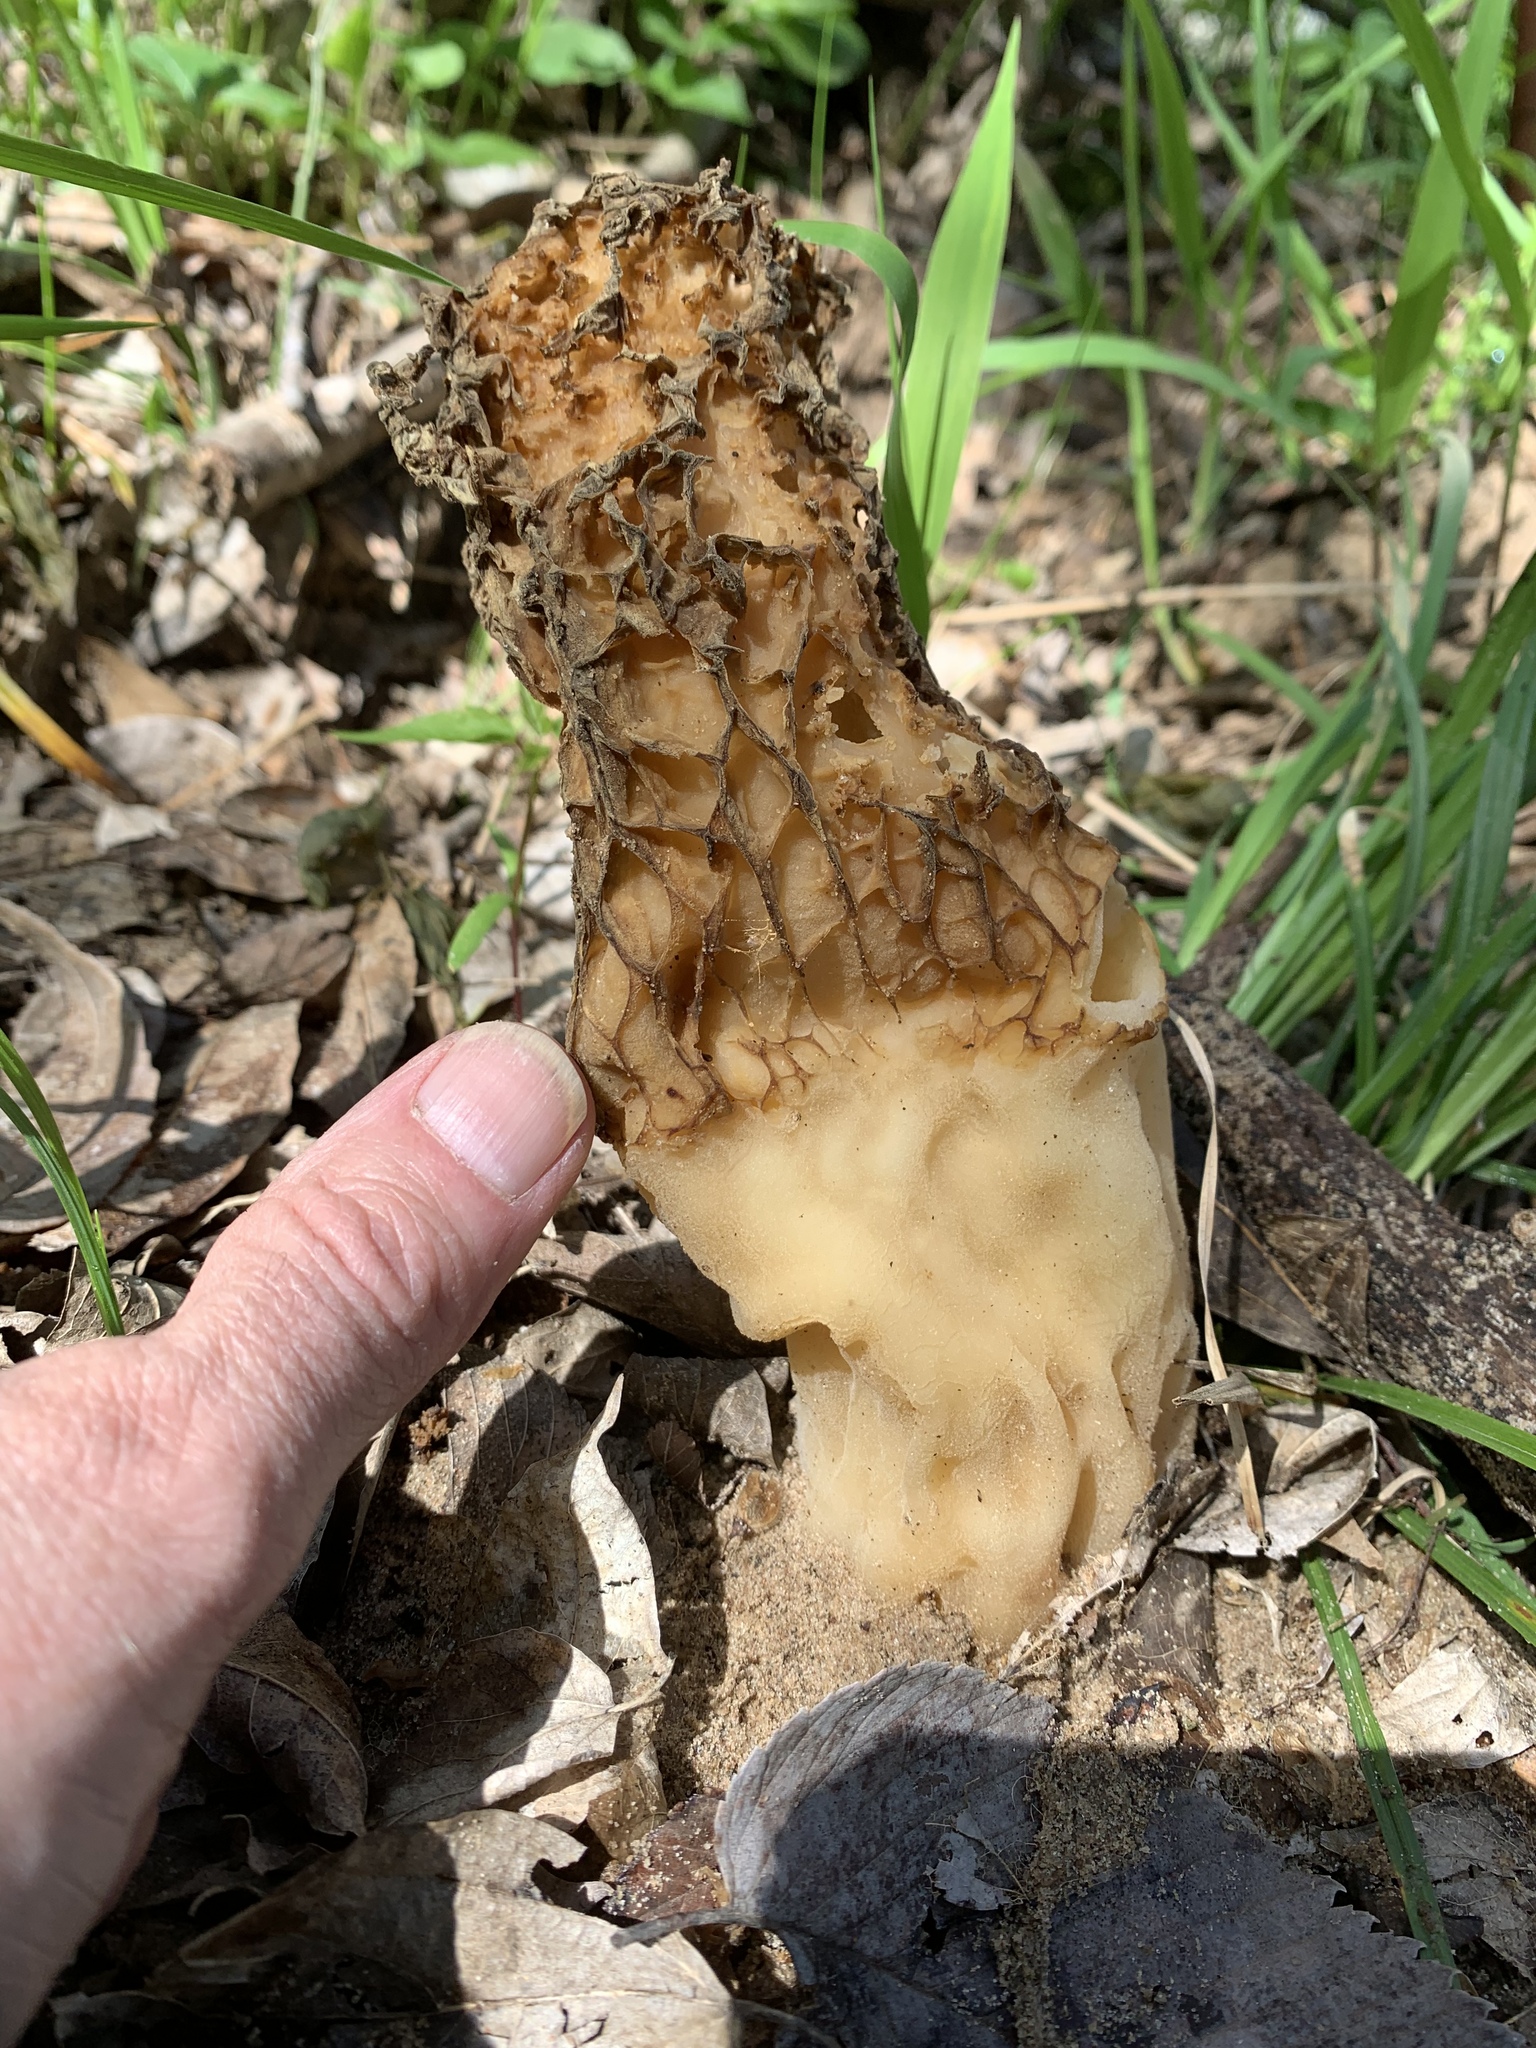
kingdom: Fungi
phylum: Ascomycota
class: Pezizomycetes
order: Pezizales
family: Morchellaceae
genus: Morchella
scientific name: Morchella americana
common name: White morel
